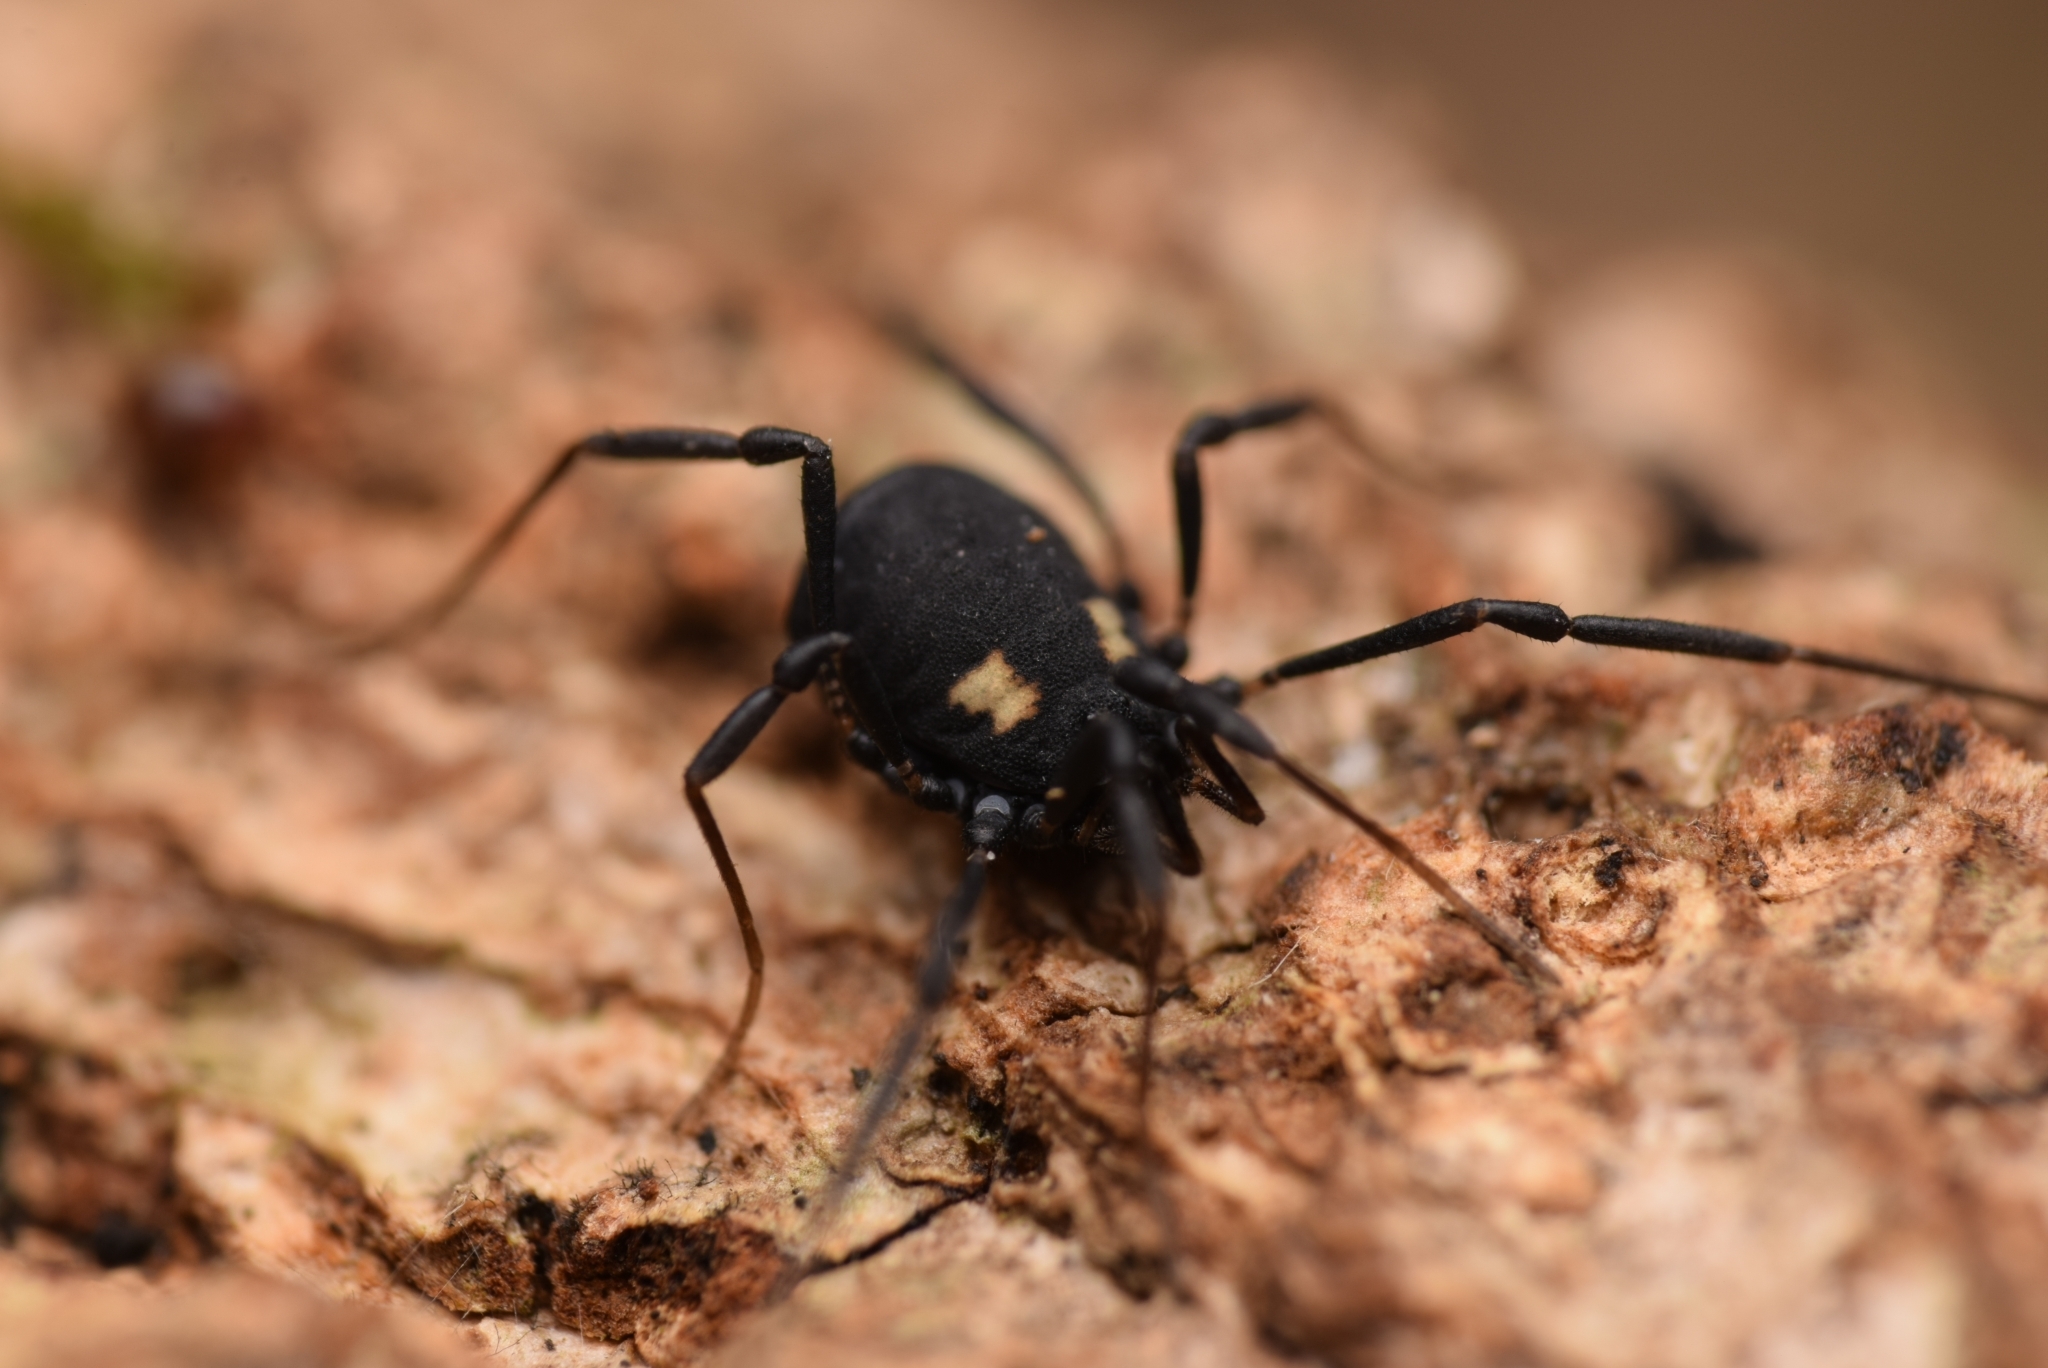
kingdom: Animalia
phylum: Arthropoda
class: Arachnida
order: Opiliones
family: Nemastomatidae
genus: Nemastoma
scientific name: Nemastoma bimaculatum
